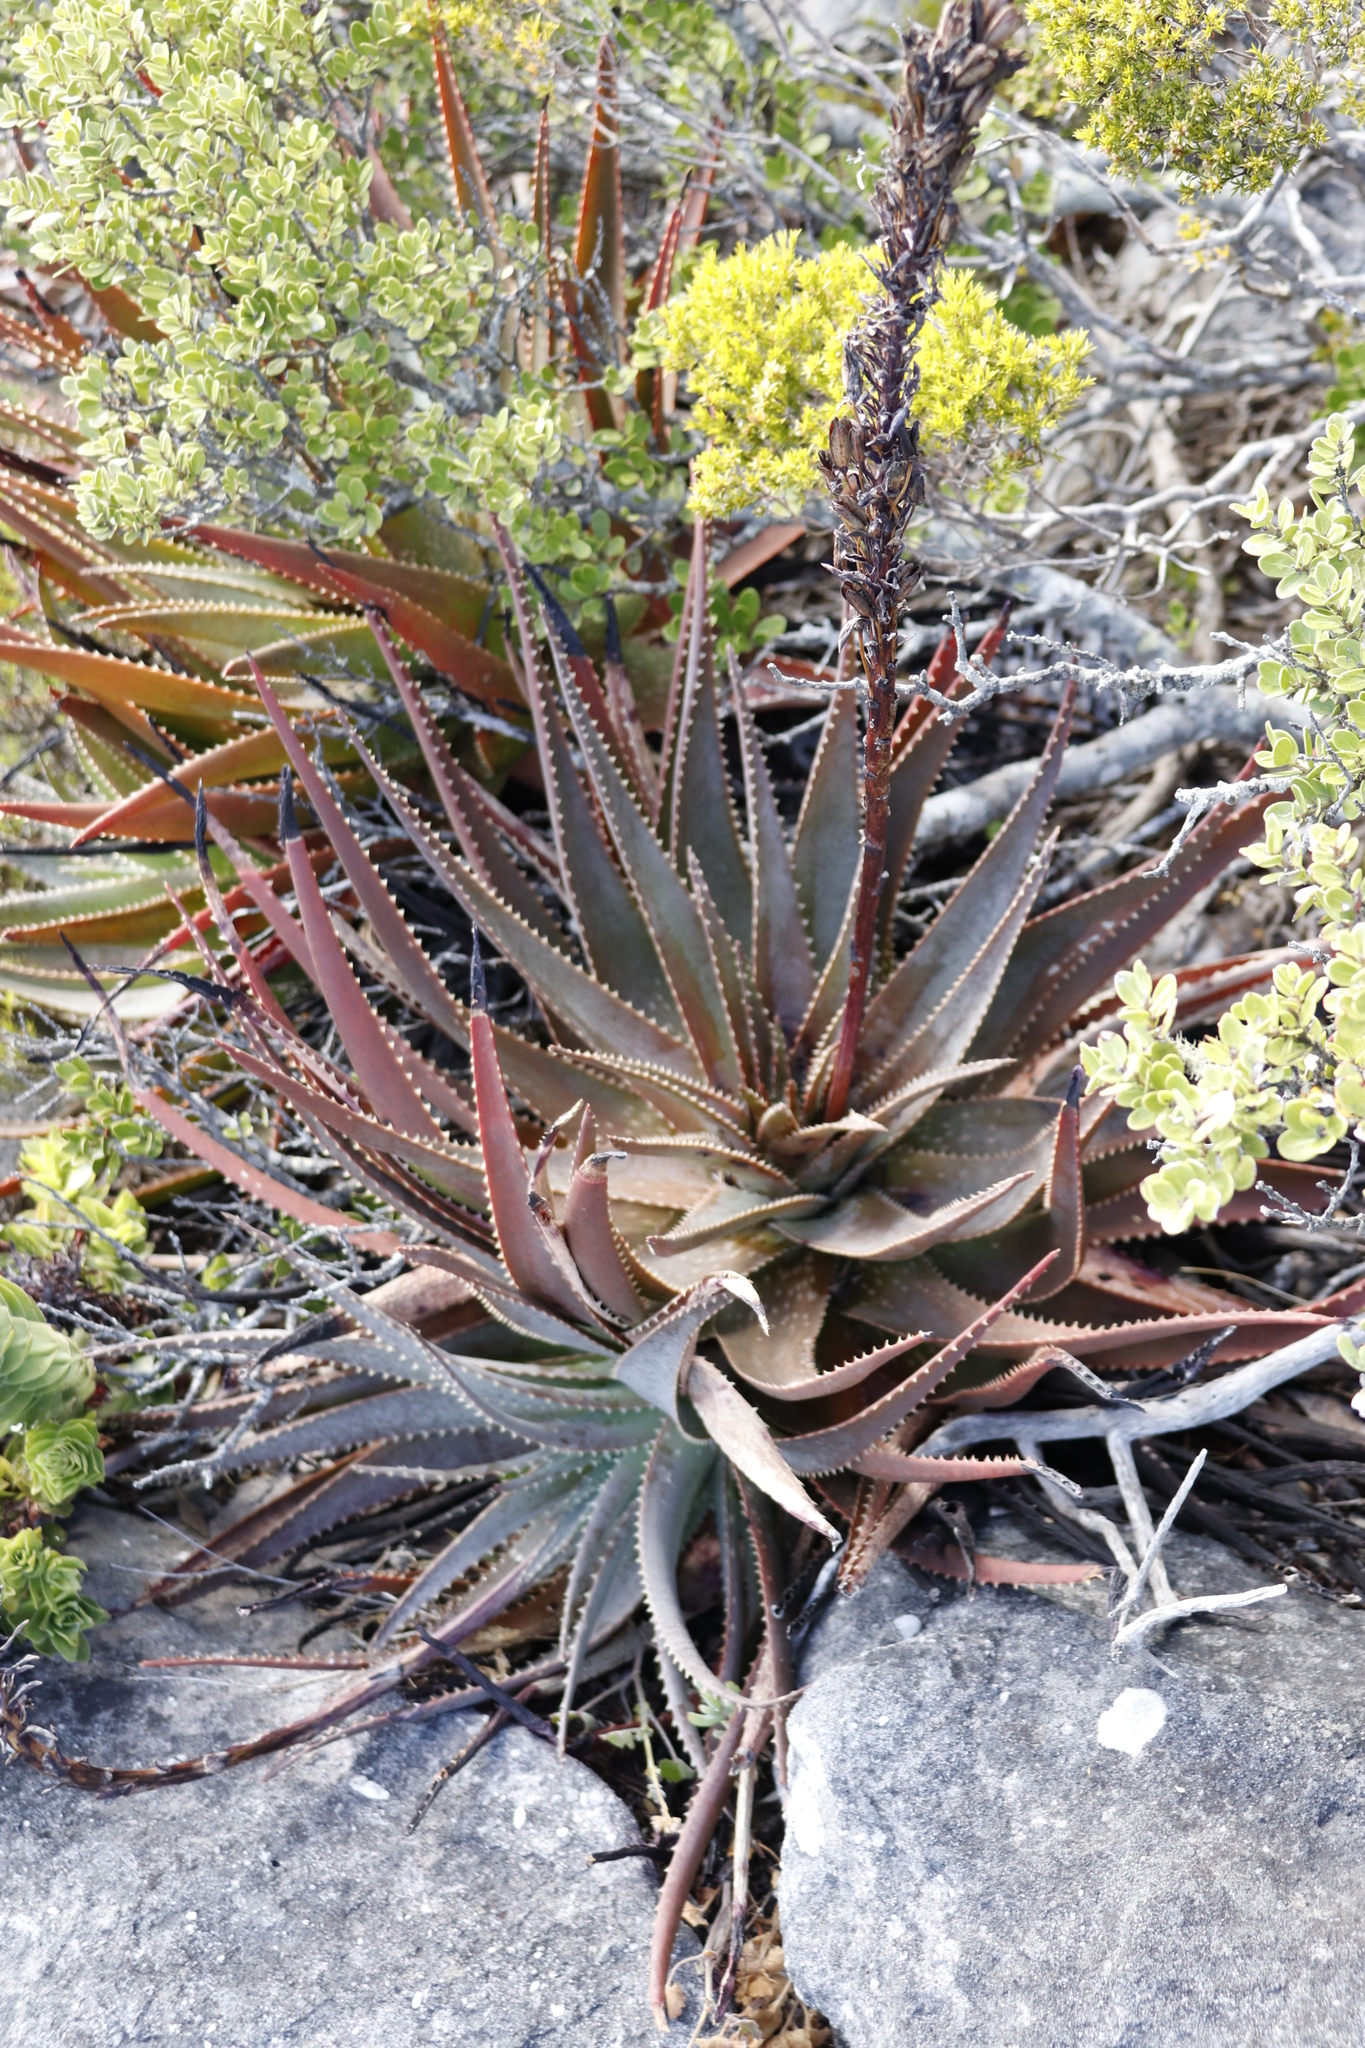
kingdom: Plantae
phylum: Tracheophyta
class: Liliopsida
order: Asparagales
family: Asphodelaceae
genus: Aloe
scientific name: Aloe succotrina
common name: Bombay aloe
